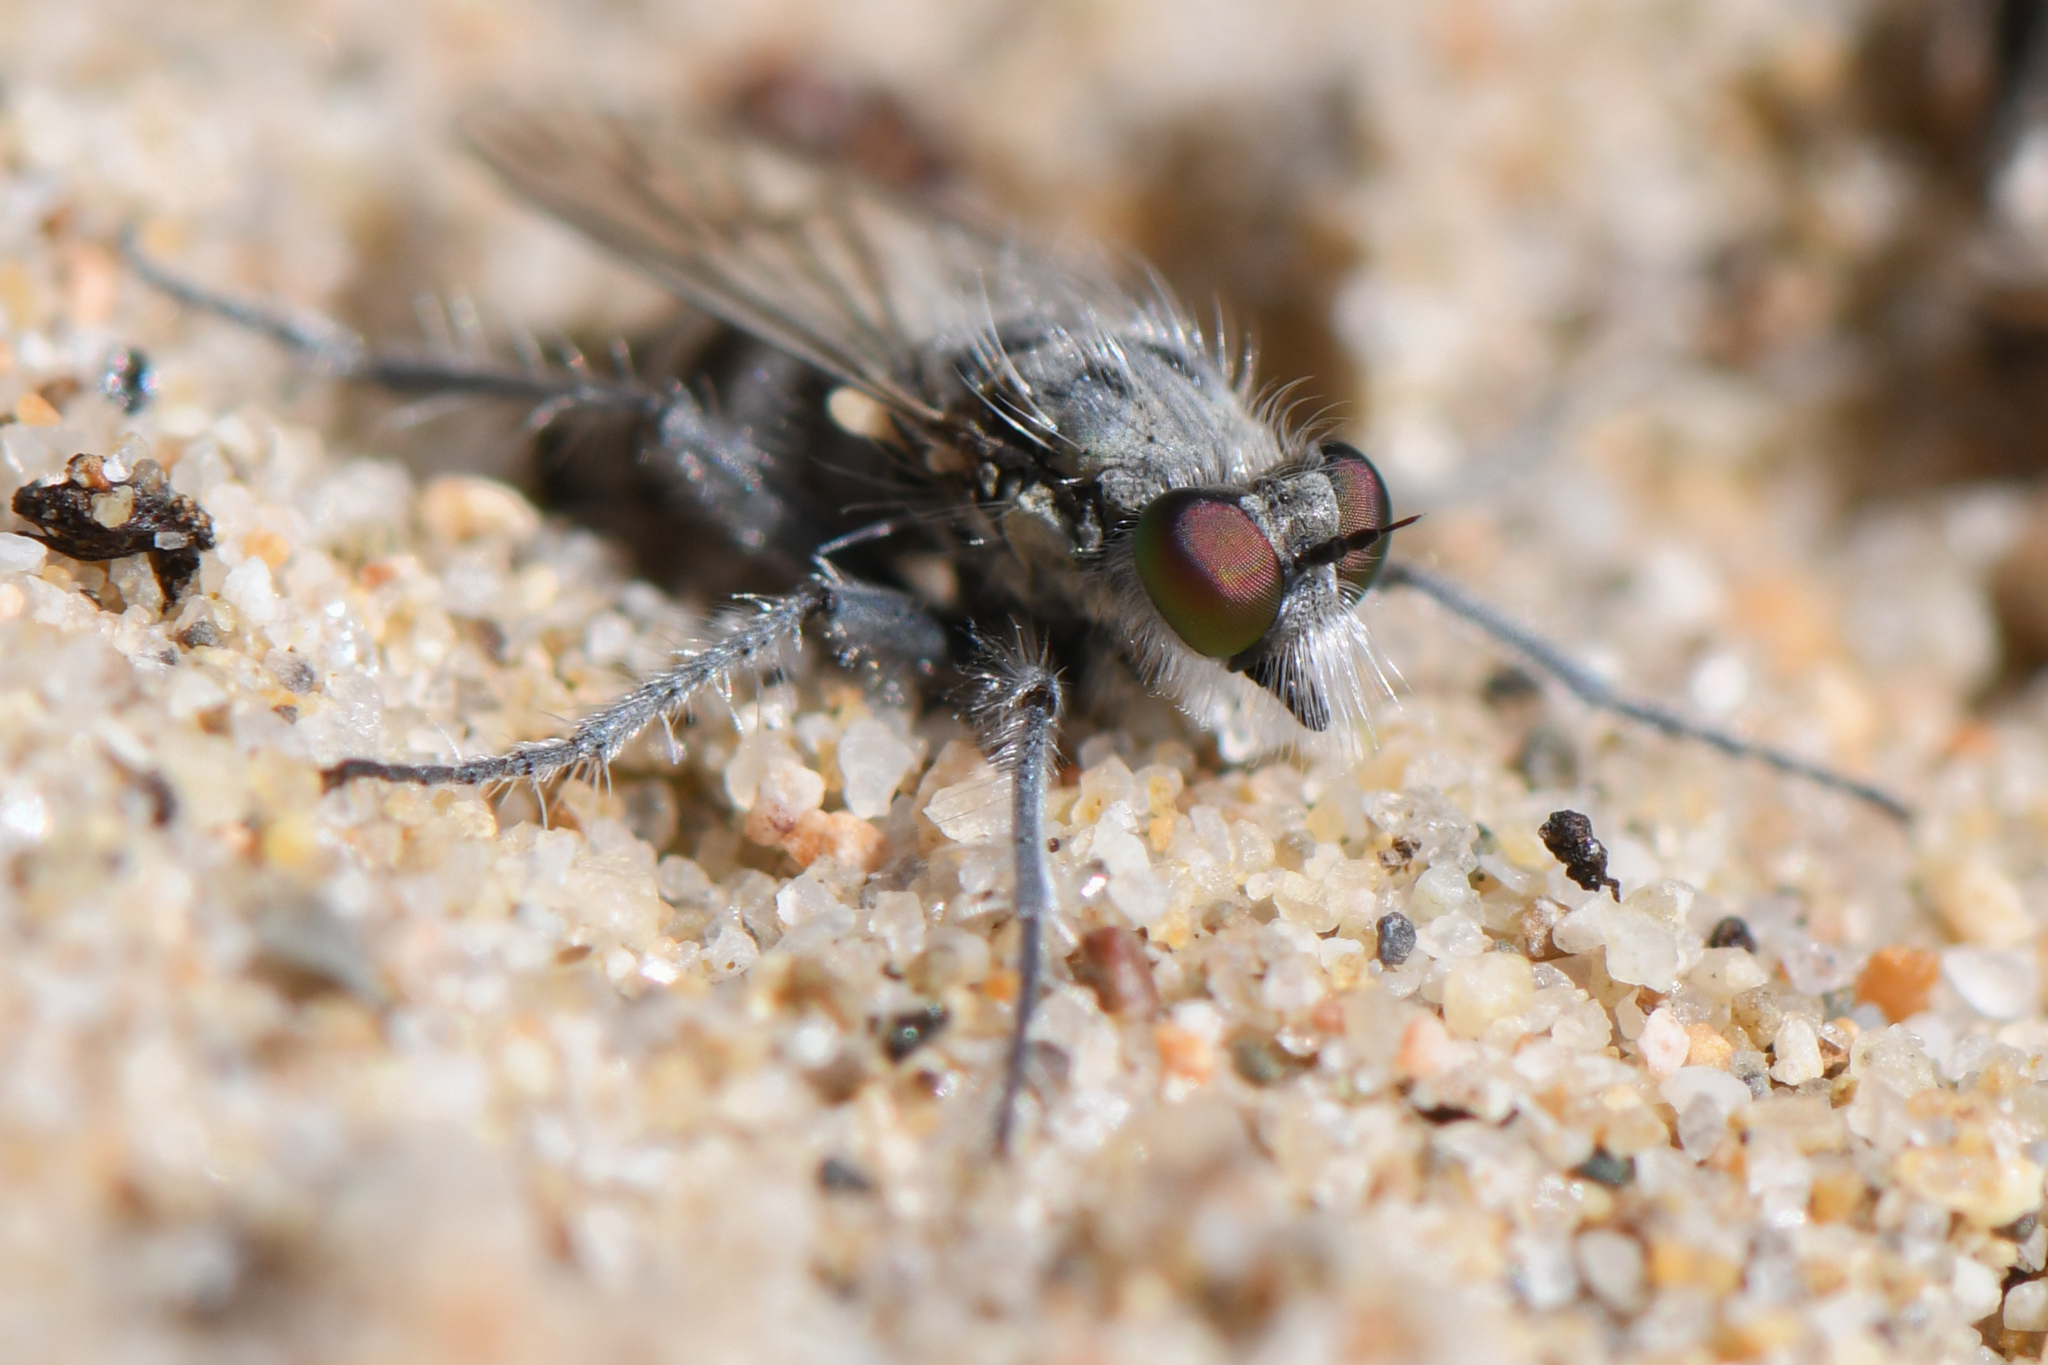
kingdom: Animalia
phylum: Arthropoda
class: Insecta
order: Diptera
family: Asilidae
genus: Lasiopogon
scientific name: Lasiopogon littoris
